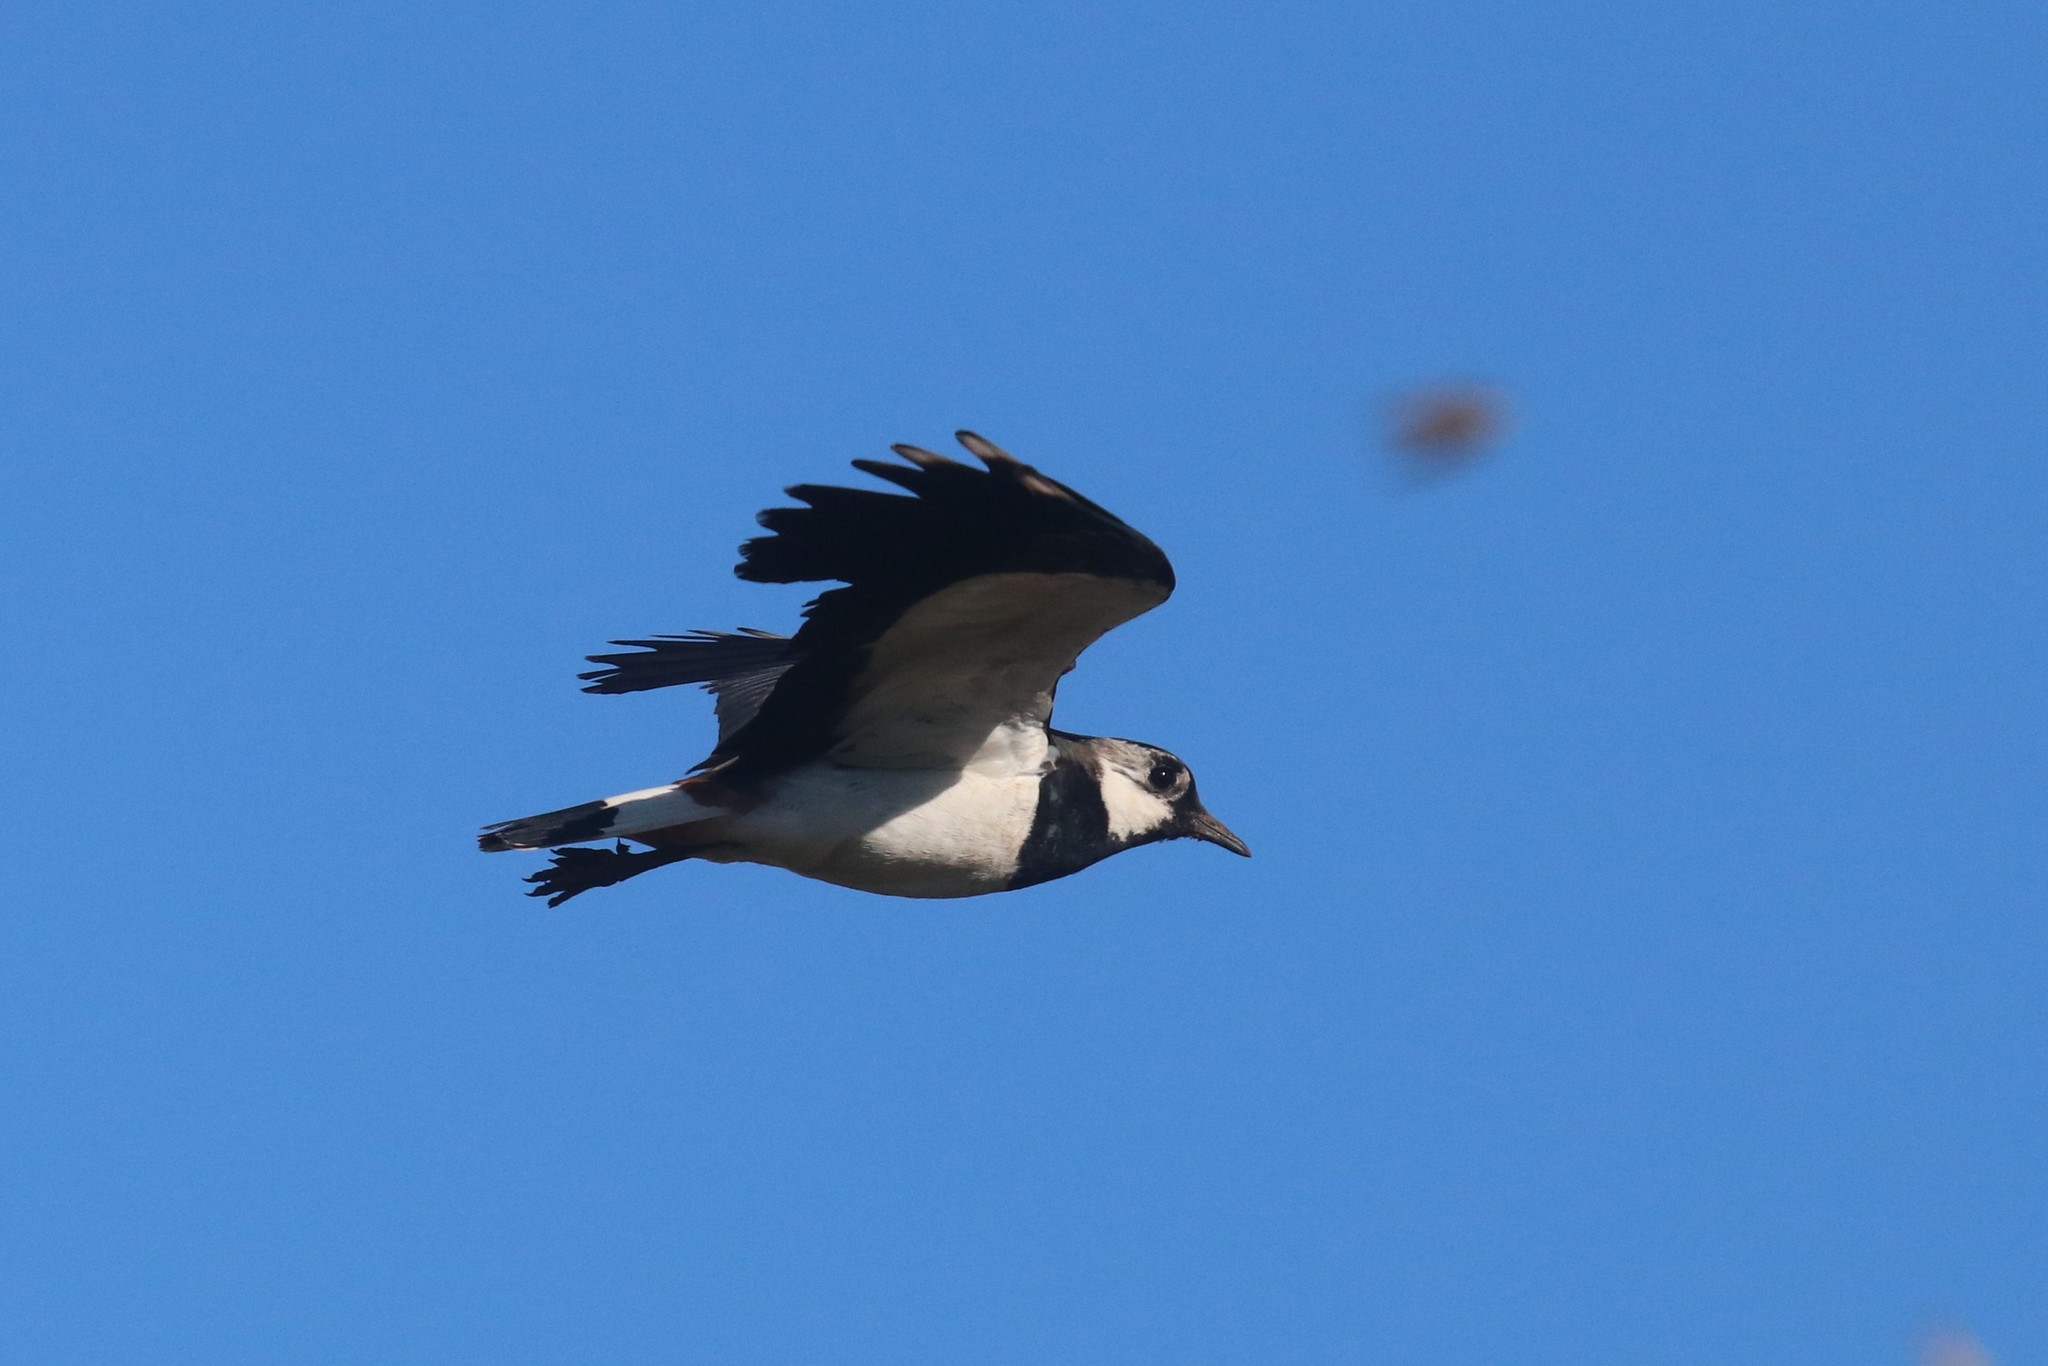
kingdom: Animalia
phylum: Chordata
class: Aves
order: Charadriiformes
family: Charadriidae
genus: Vanellus
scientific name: Vanellus vanellus
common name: Northern lapwing
